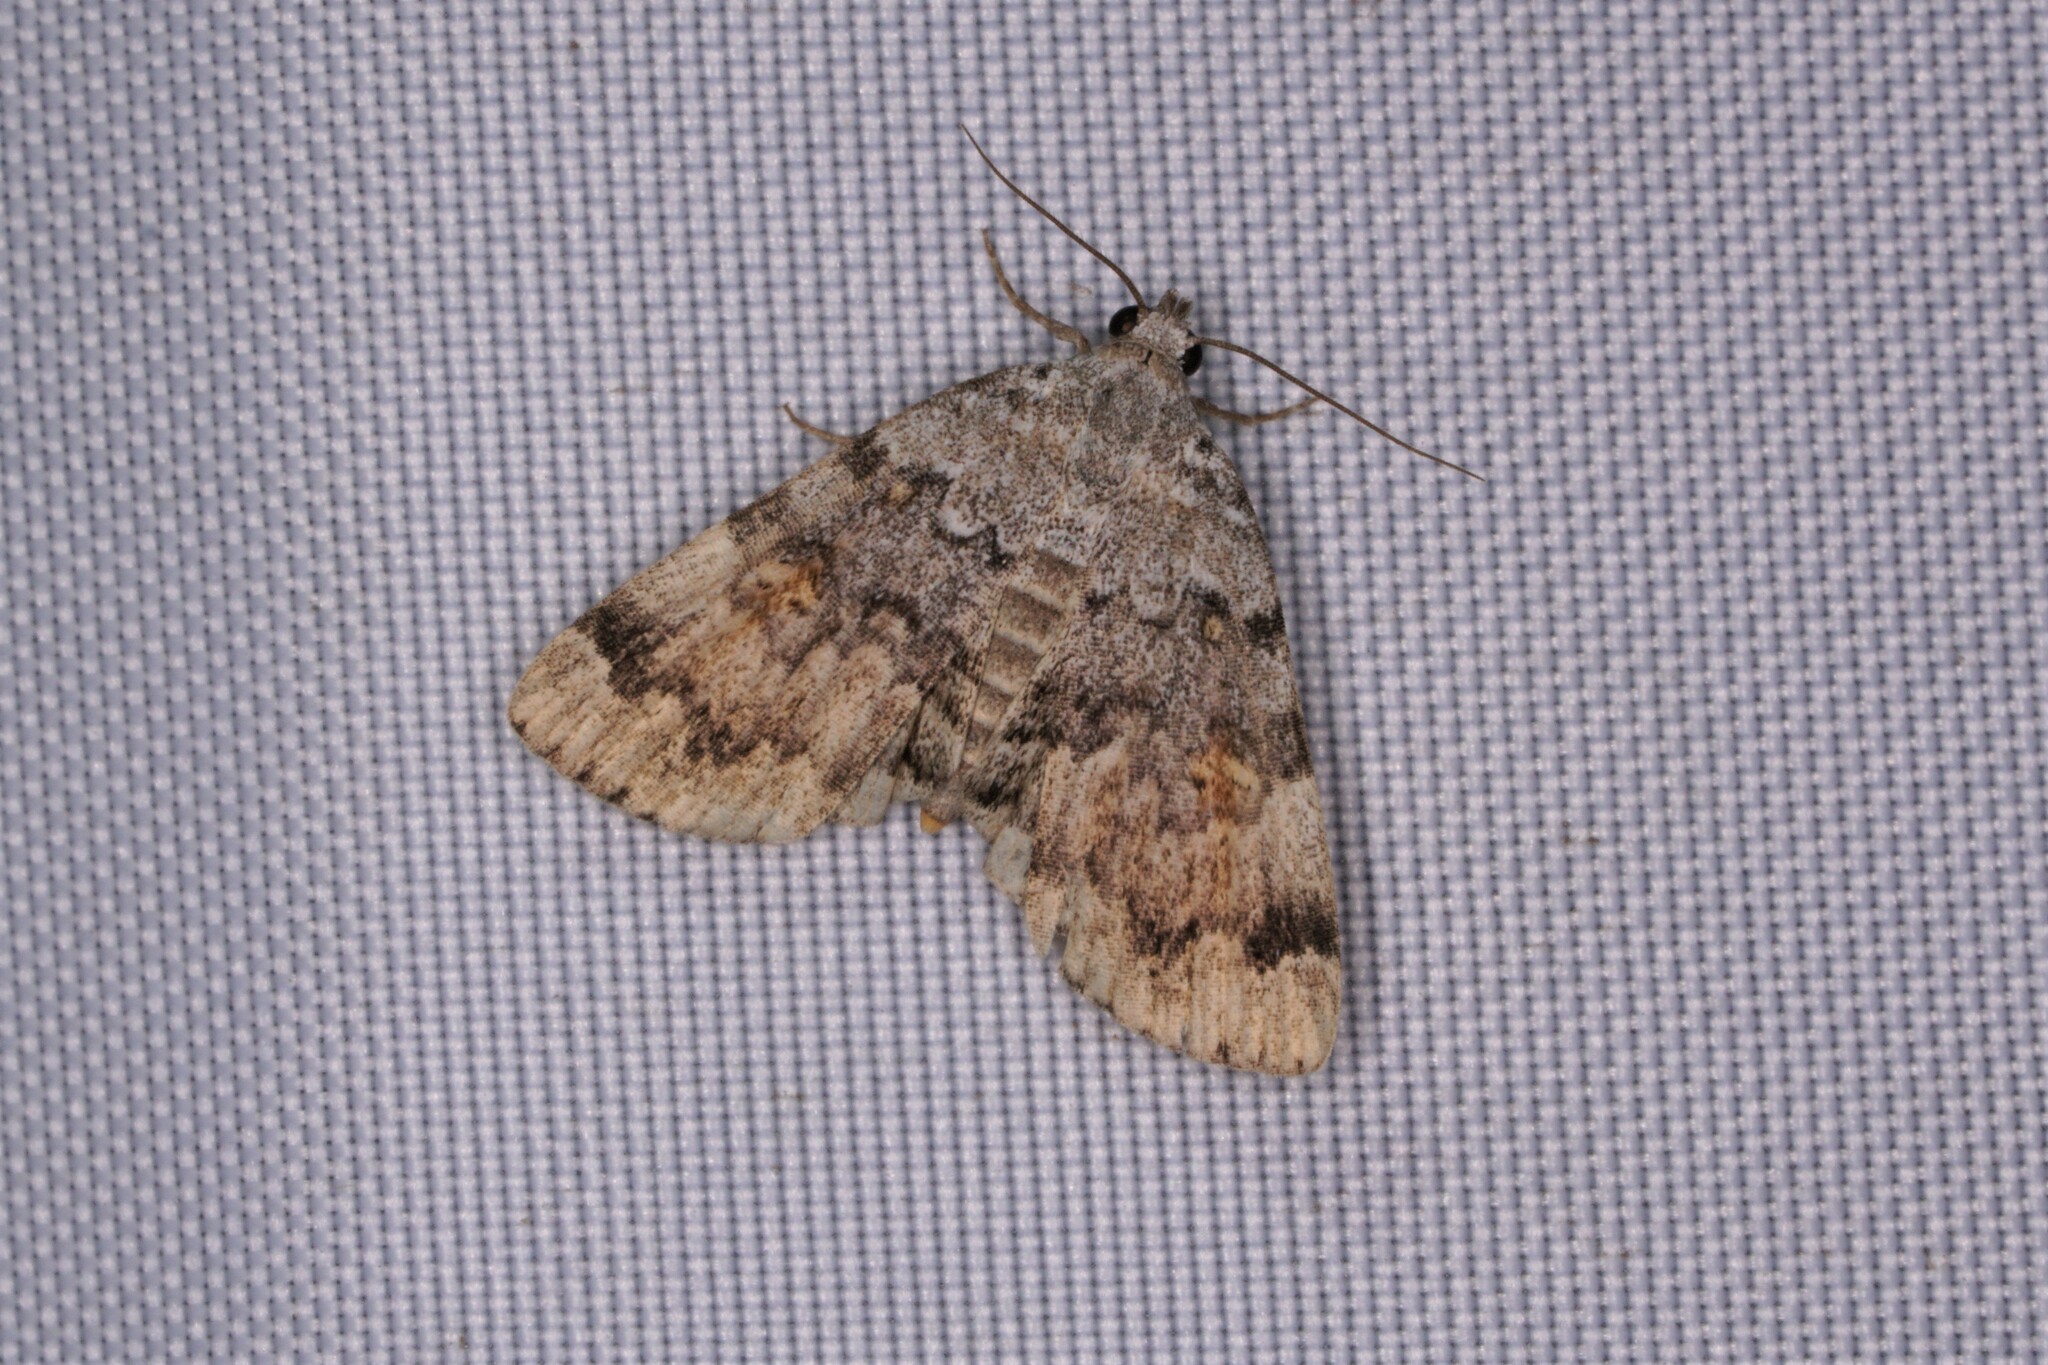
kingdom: Animalia
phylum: Arthropoda
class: Insecta
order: Lepidoptera
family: Erebidae
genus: Idia
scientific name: Idia americalis
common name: American idia moth
